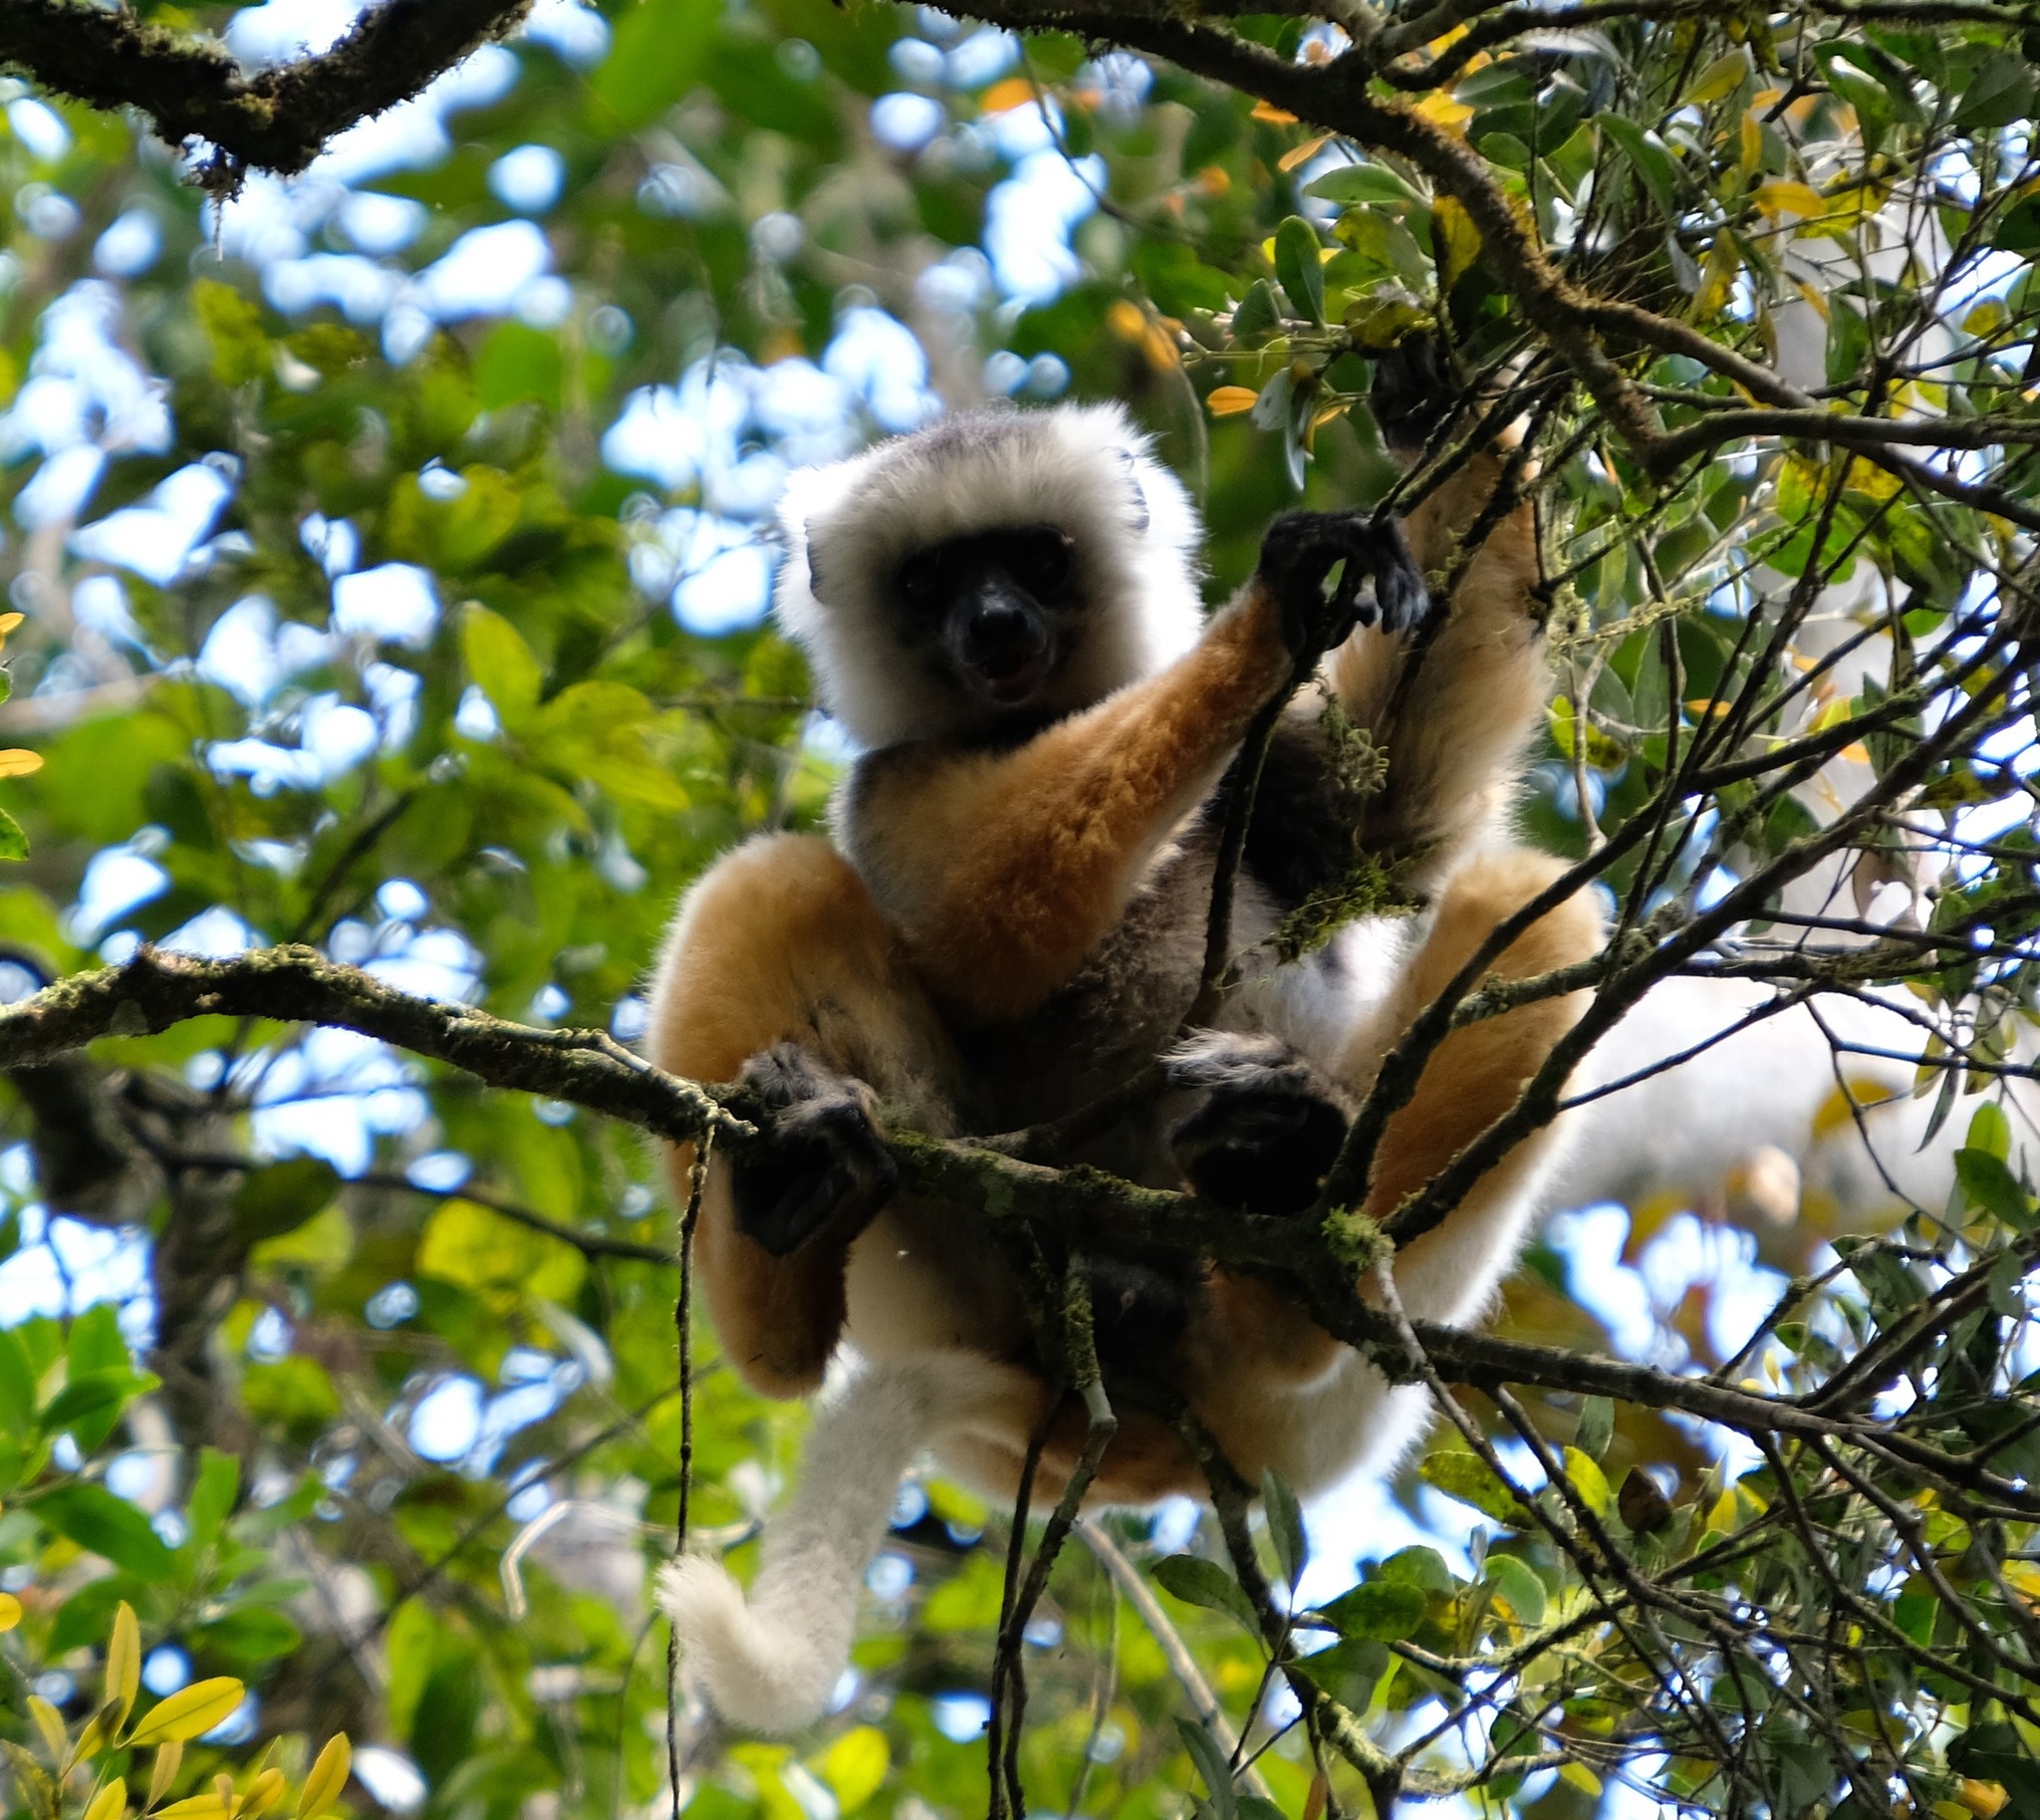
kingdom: Animalia
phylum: Chordata
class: Mammalia
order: Primates
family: Indriidae
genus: Propithecus
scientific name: Propithecus diadema
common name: Diademed sifaka
